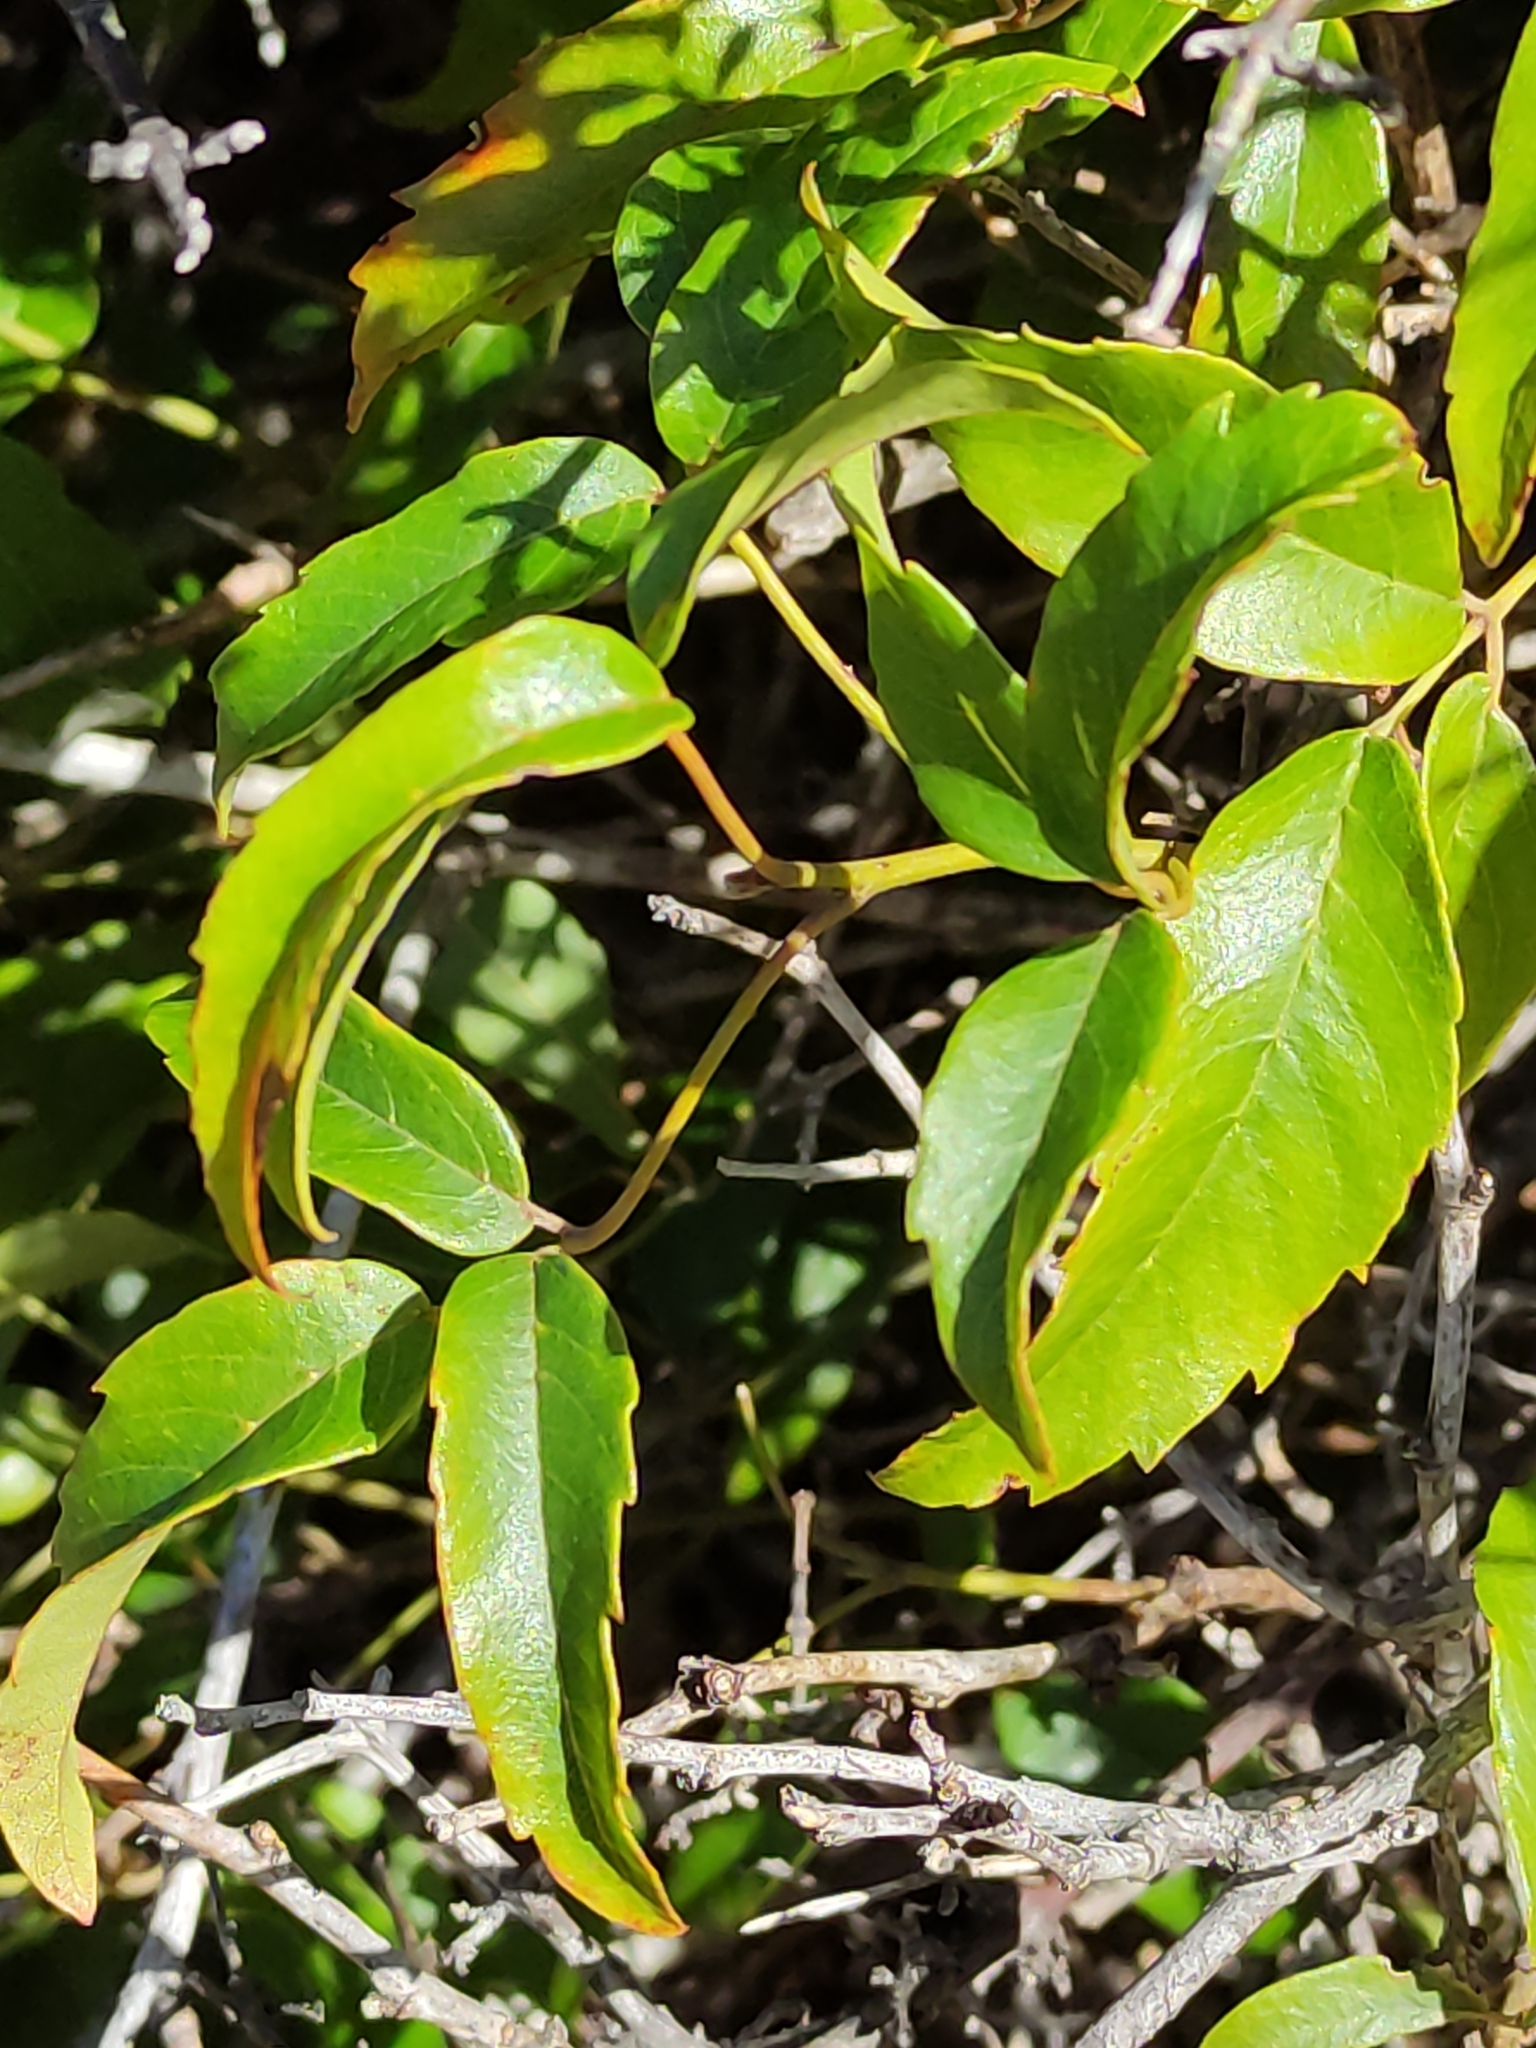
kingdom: Plantae
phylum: Tracheophyta
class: Magnoliopsida
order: Rosales
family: Rosaceae
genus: Rubus
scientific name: Rubus schmidelioides
